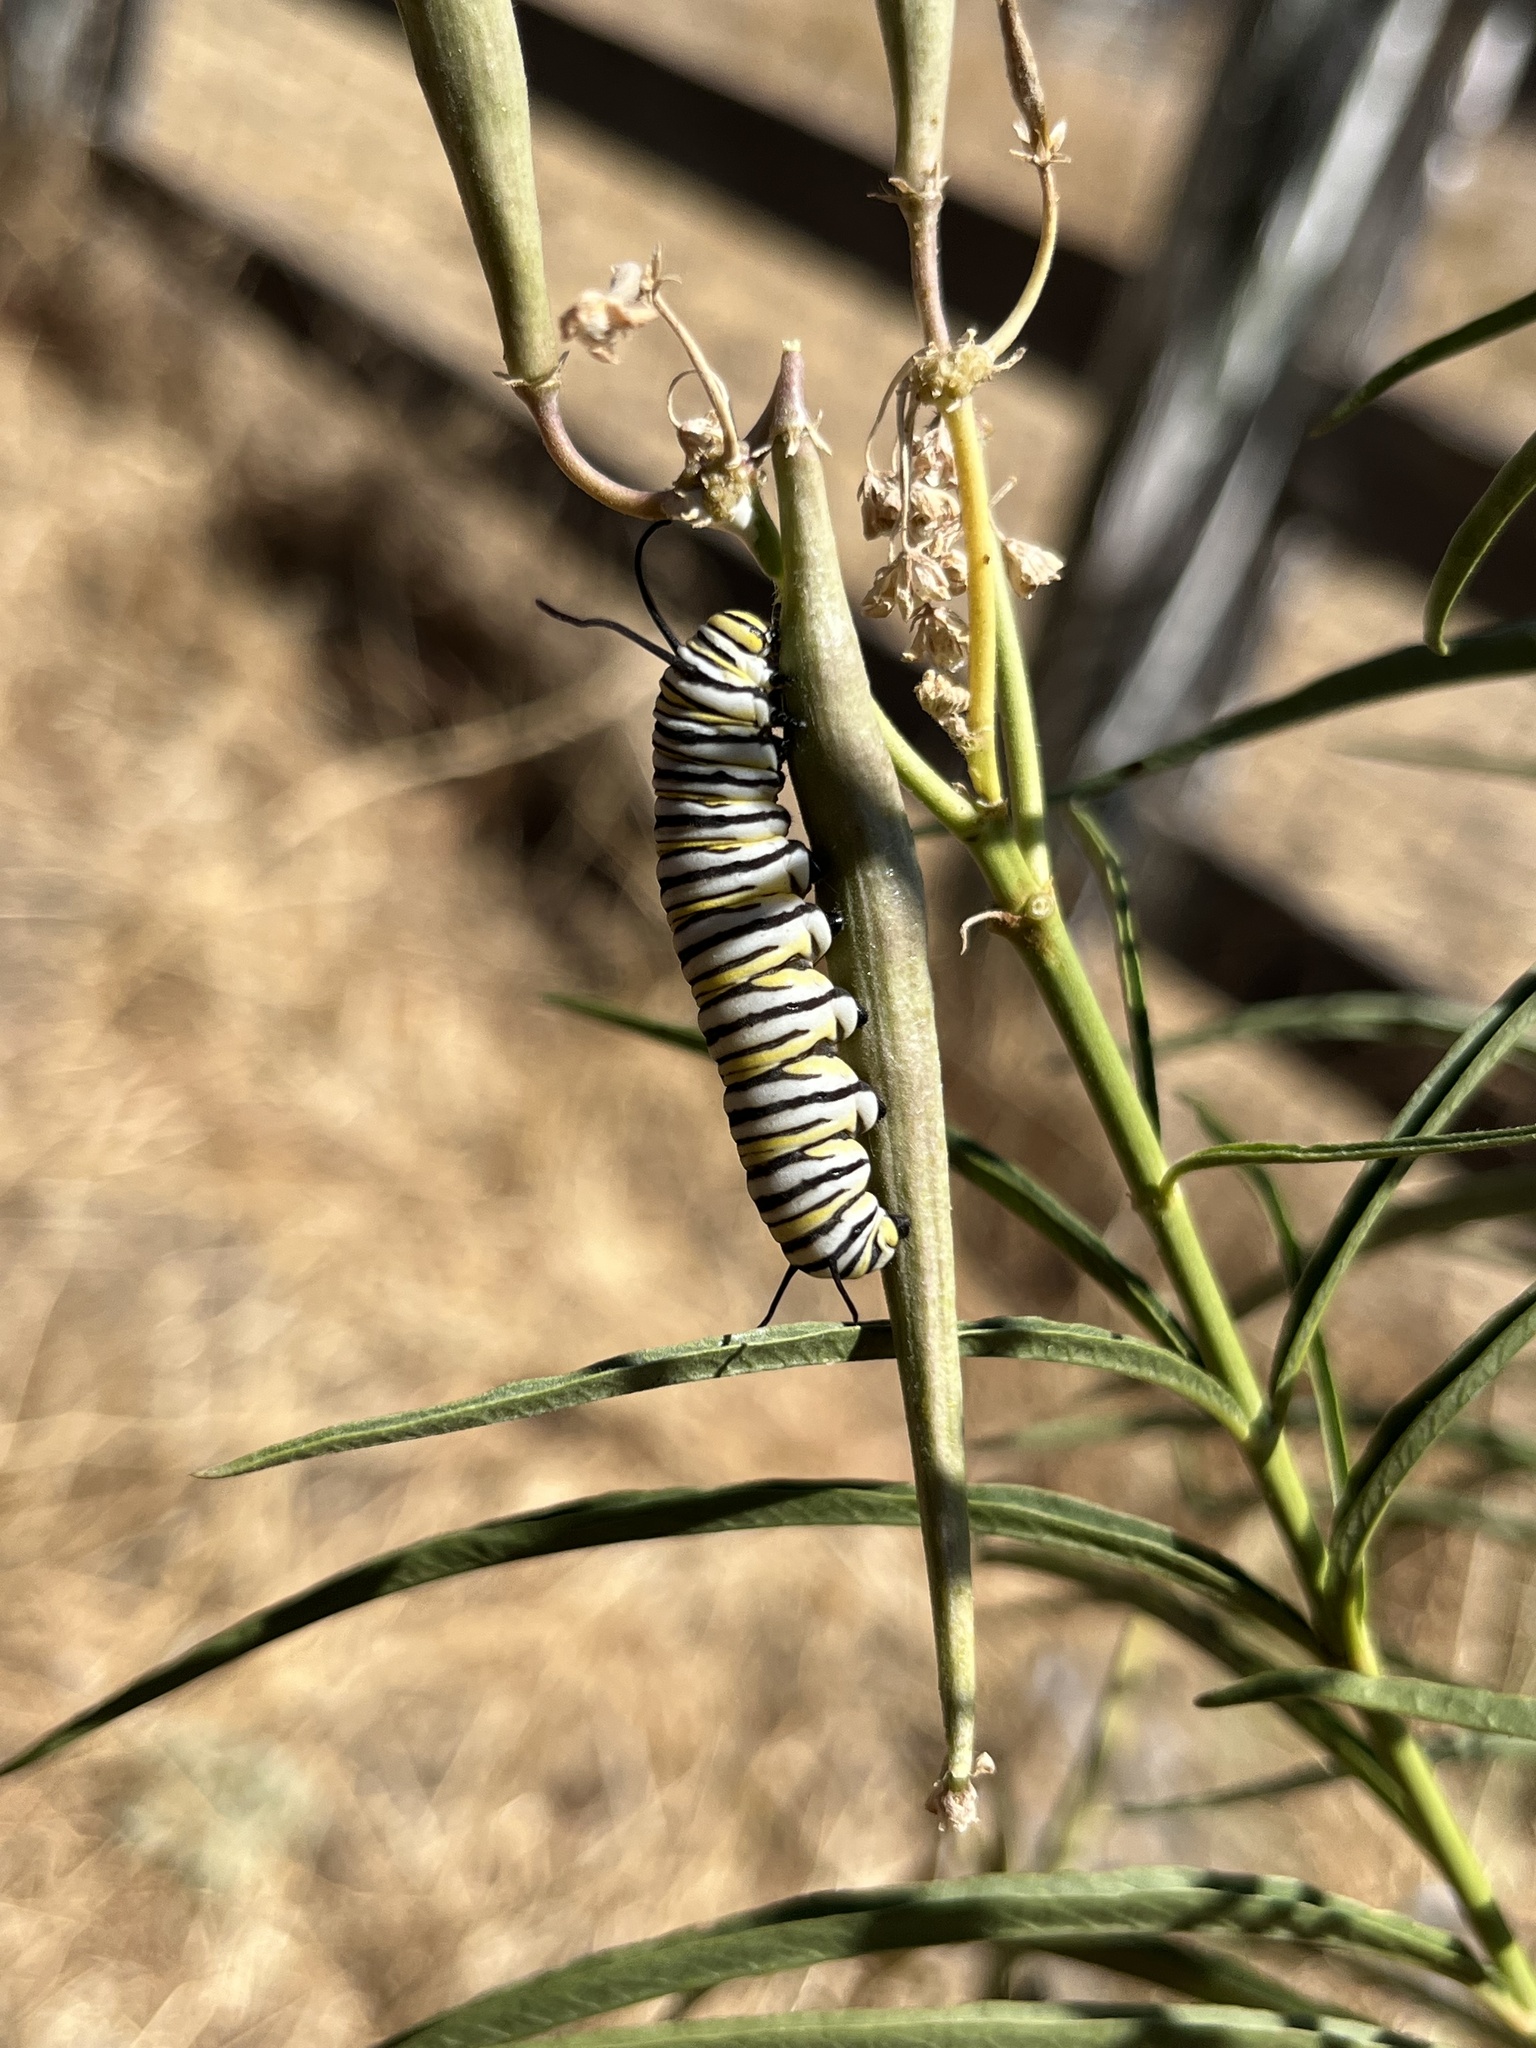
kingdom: Animalia
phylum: Arthropoda
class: Insecta
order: Lepidoptera
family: Nymphalidae
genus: Danaus
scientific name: Danaus plexippus
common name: Monarch
